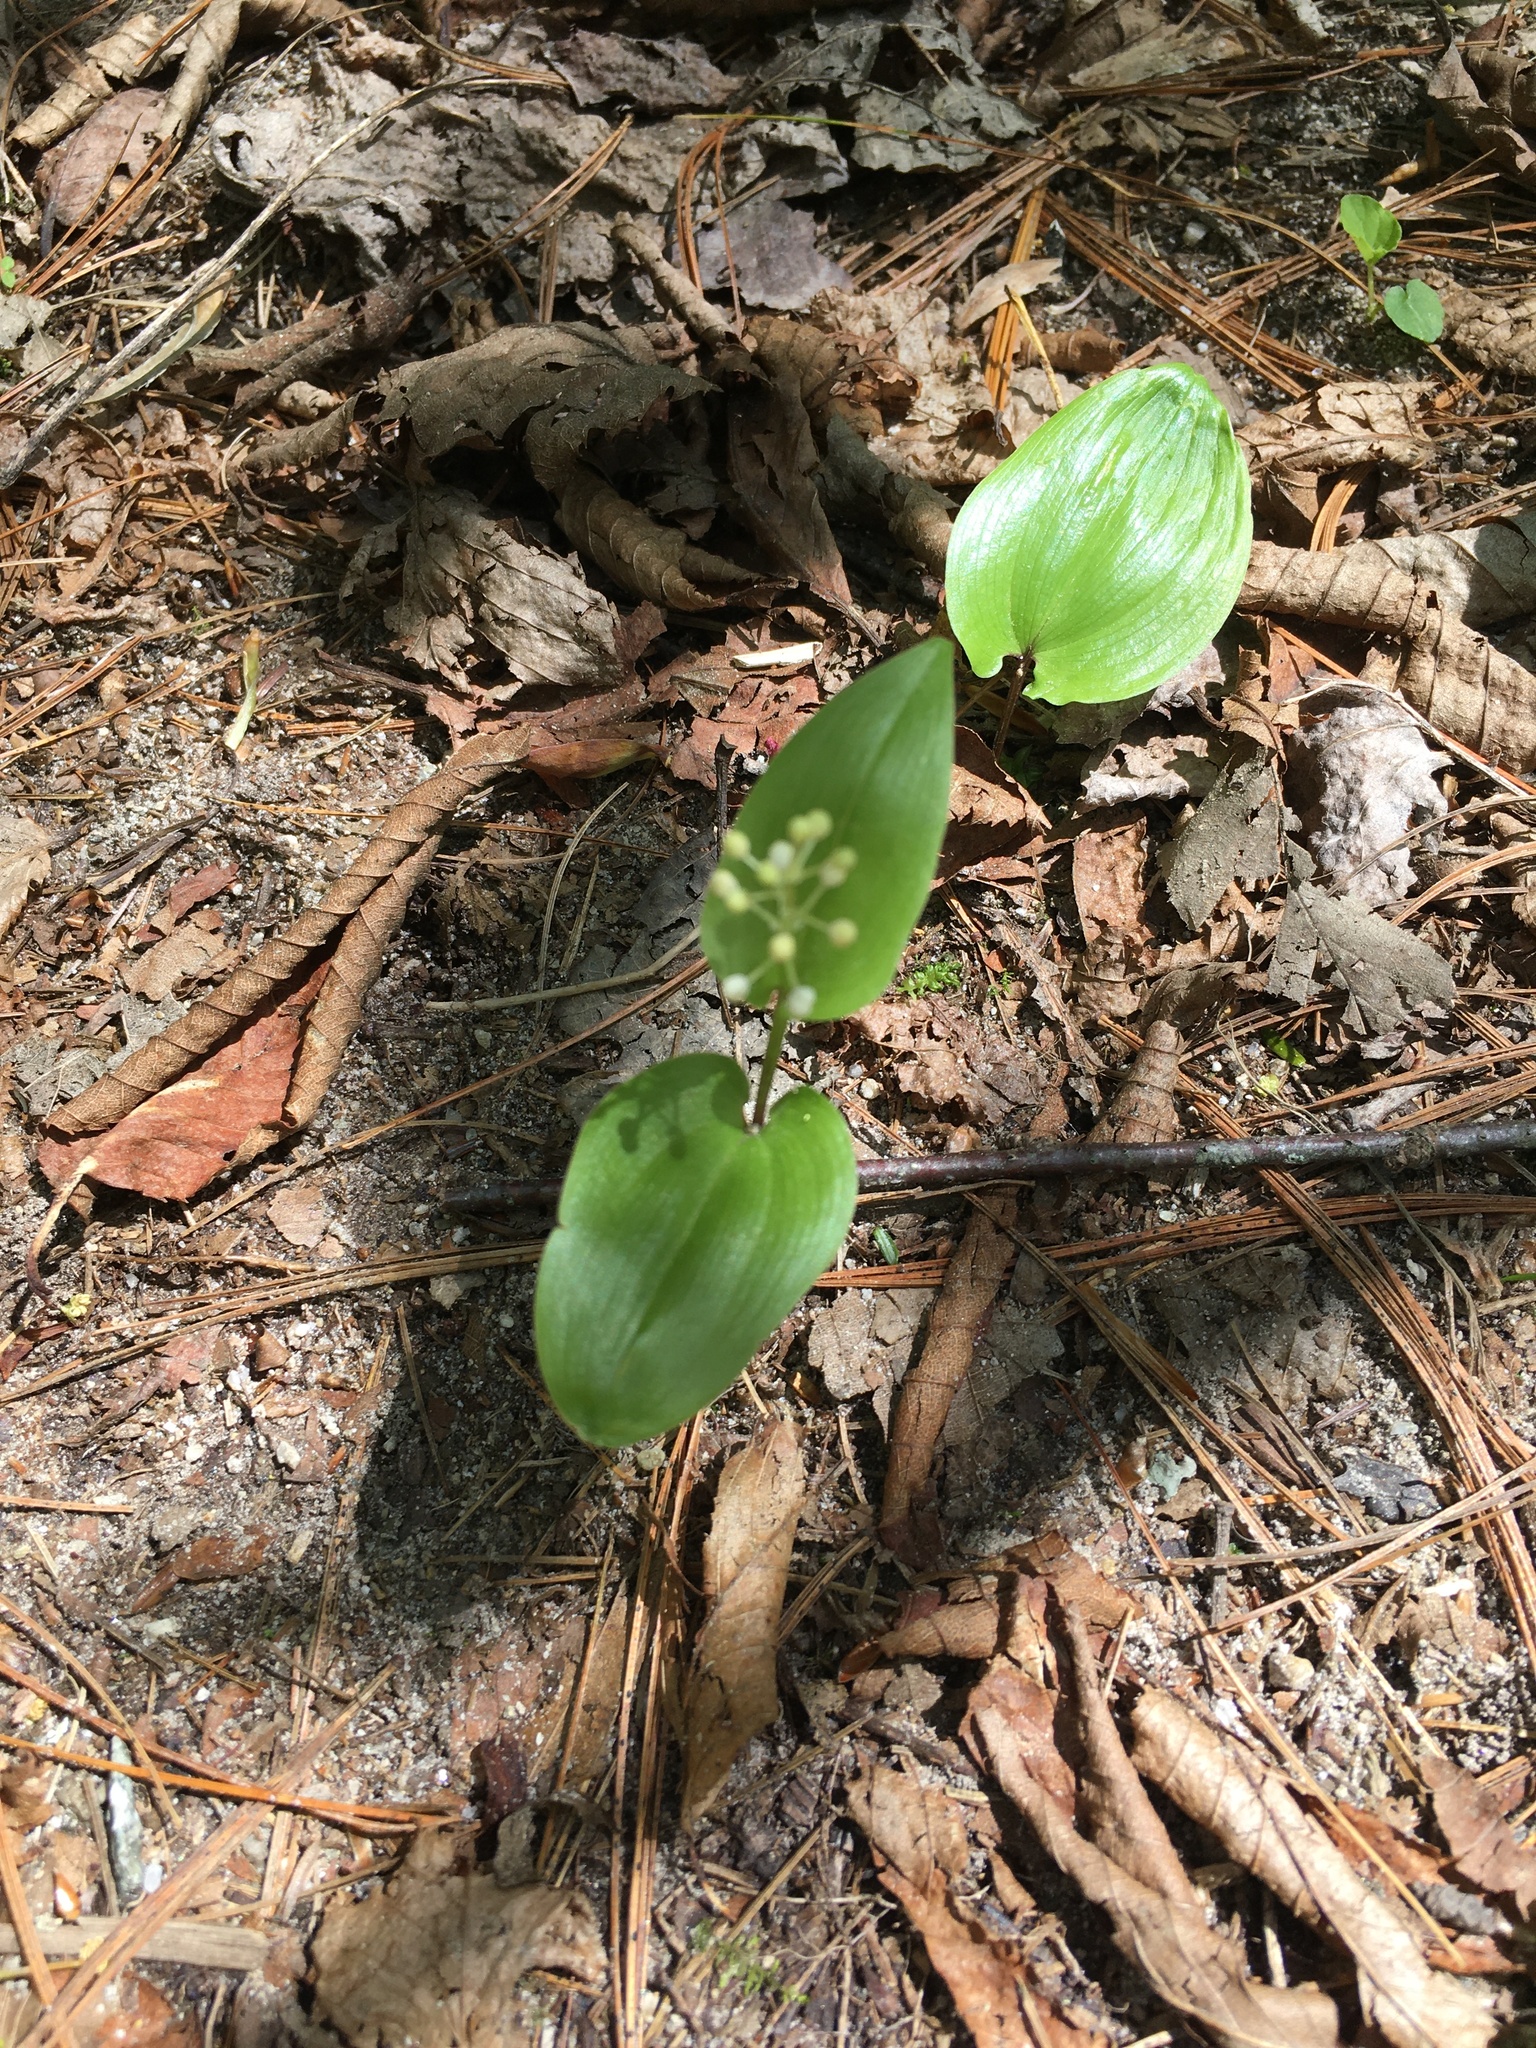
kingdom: Plantae
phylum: Tracheophyta
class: Liliopsida
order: Asparagales
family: Asparagaceae
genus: Maianthemum
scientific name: Maianthemum canadense
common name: False lily-of-the-valley
